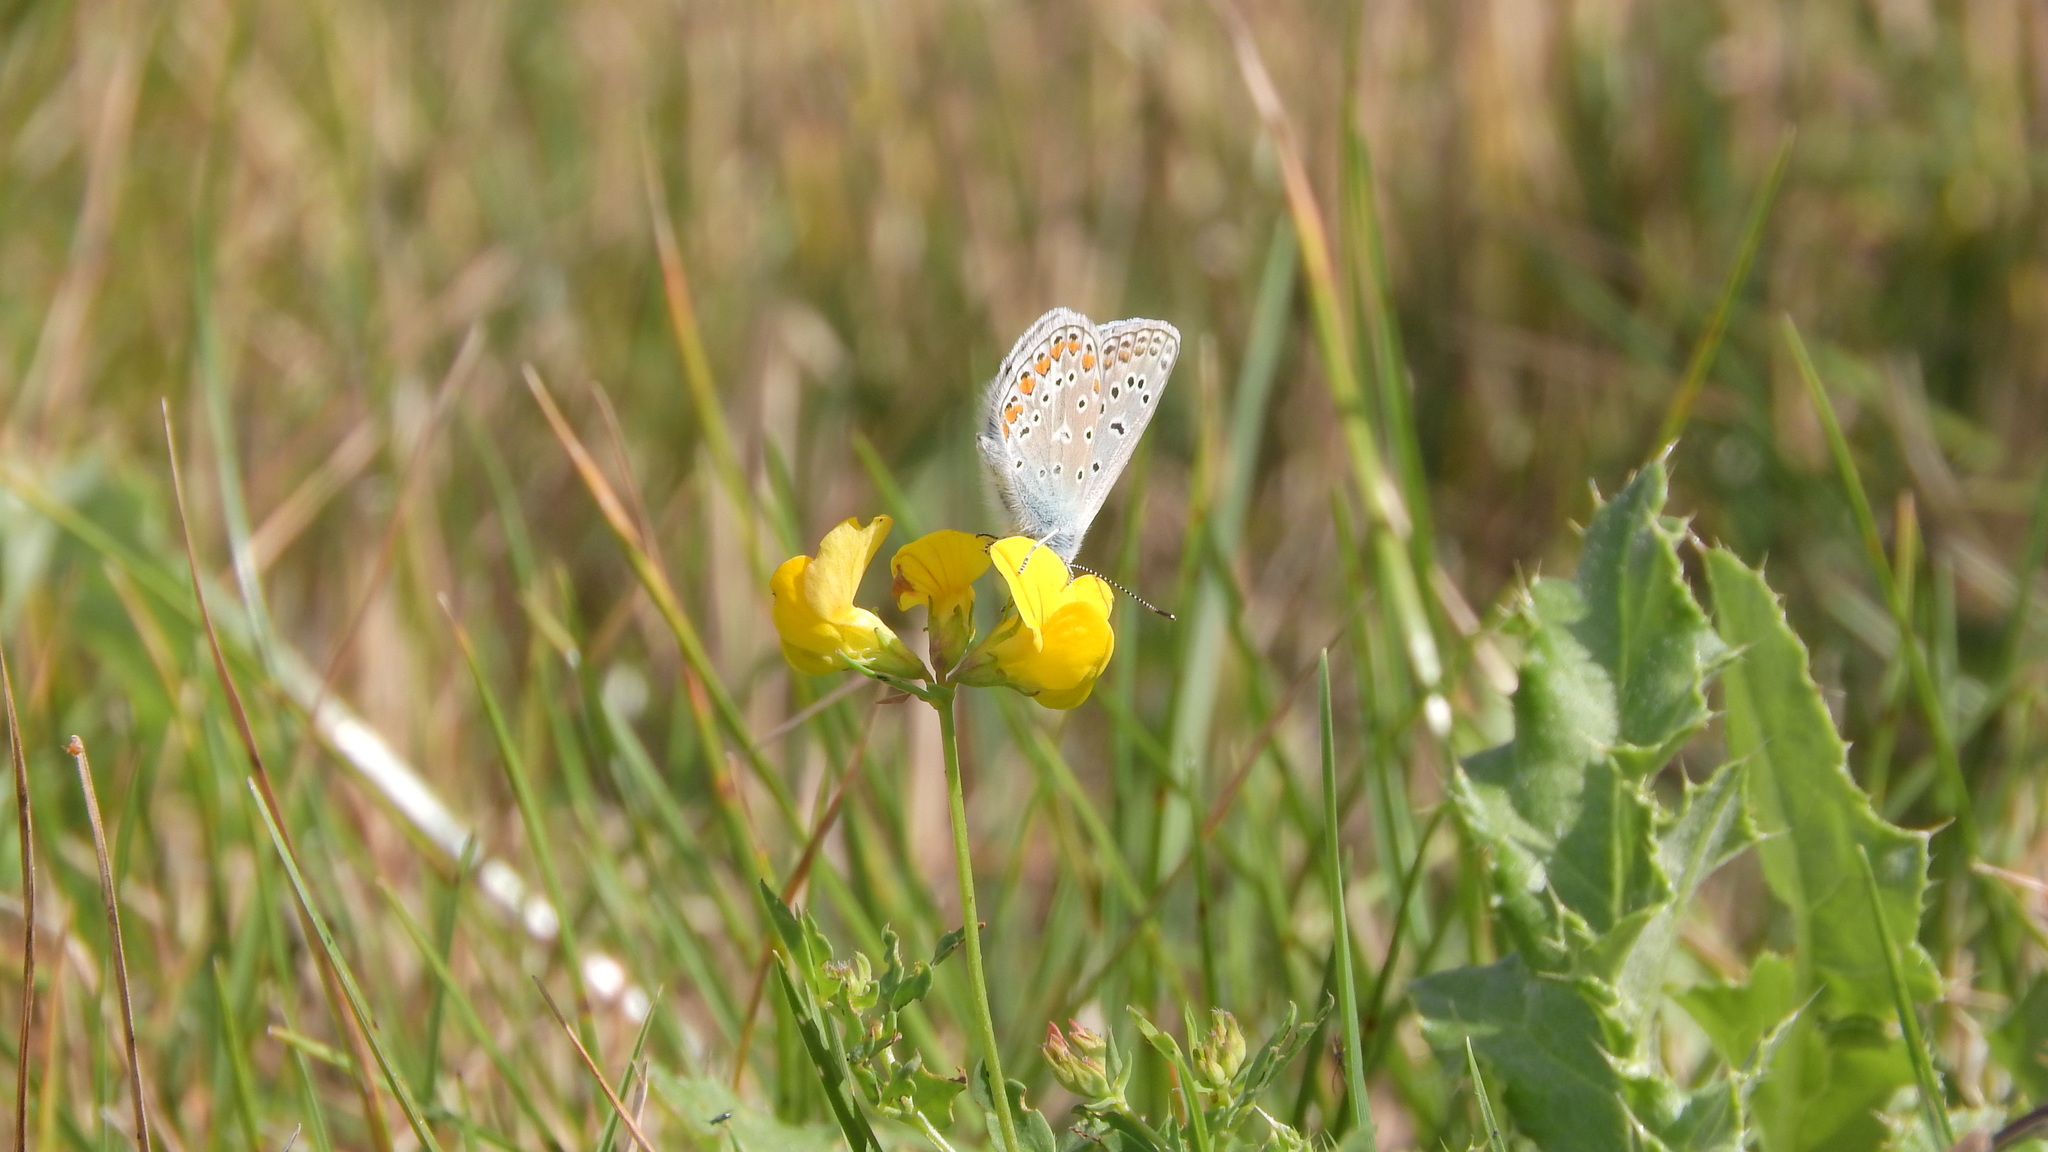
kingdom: Animalia
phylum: Arthropoda
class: Insecta
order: Lepidoptera
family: Lycaenidae
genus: Polyommatus
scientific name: Polyommatus icarus
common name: Common blue
